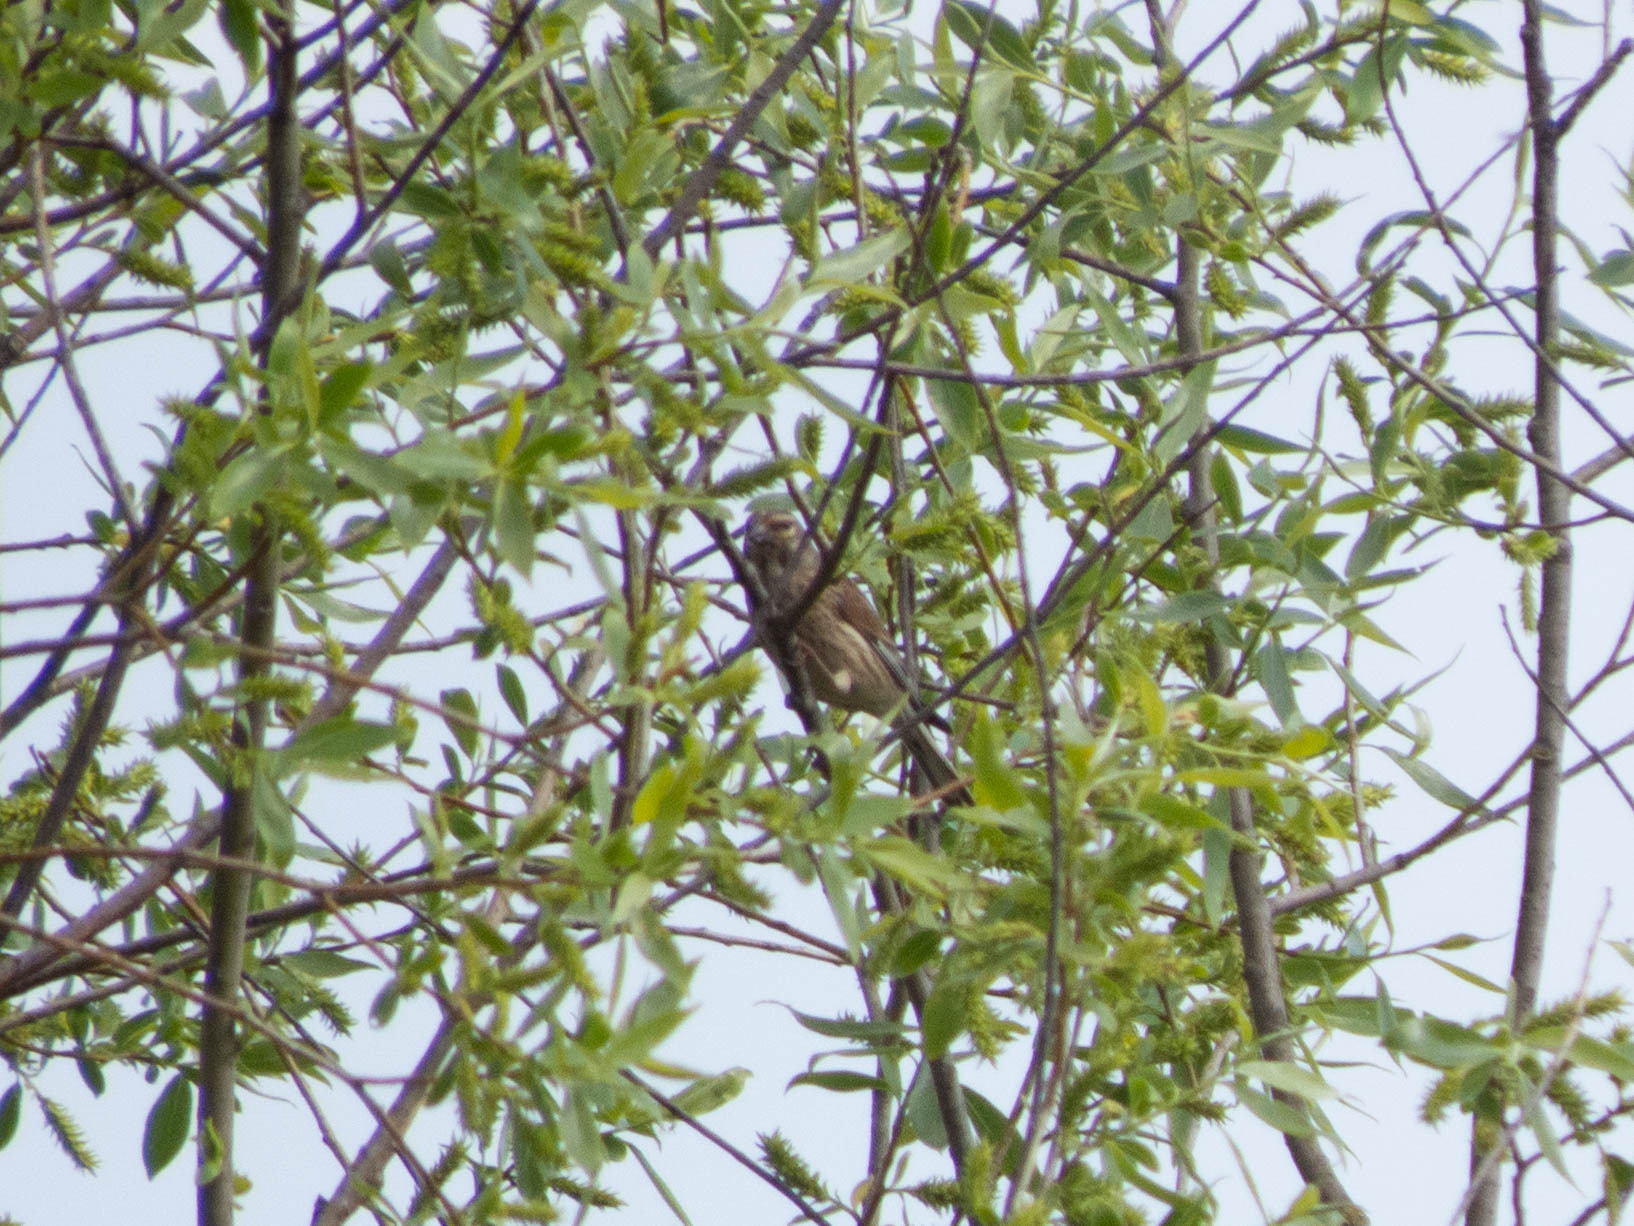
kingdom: Animalia
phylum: Chordata
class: Aves
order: Passeriformes
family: Fringillidae
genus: Linaria
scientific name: Linaria cannabina
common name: Common linnet
